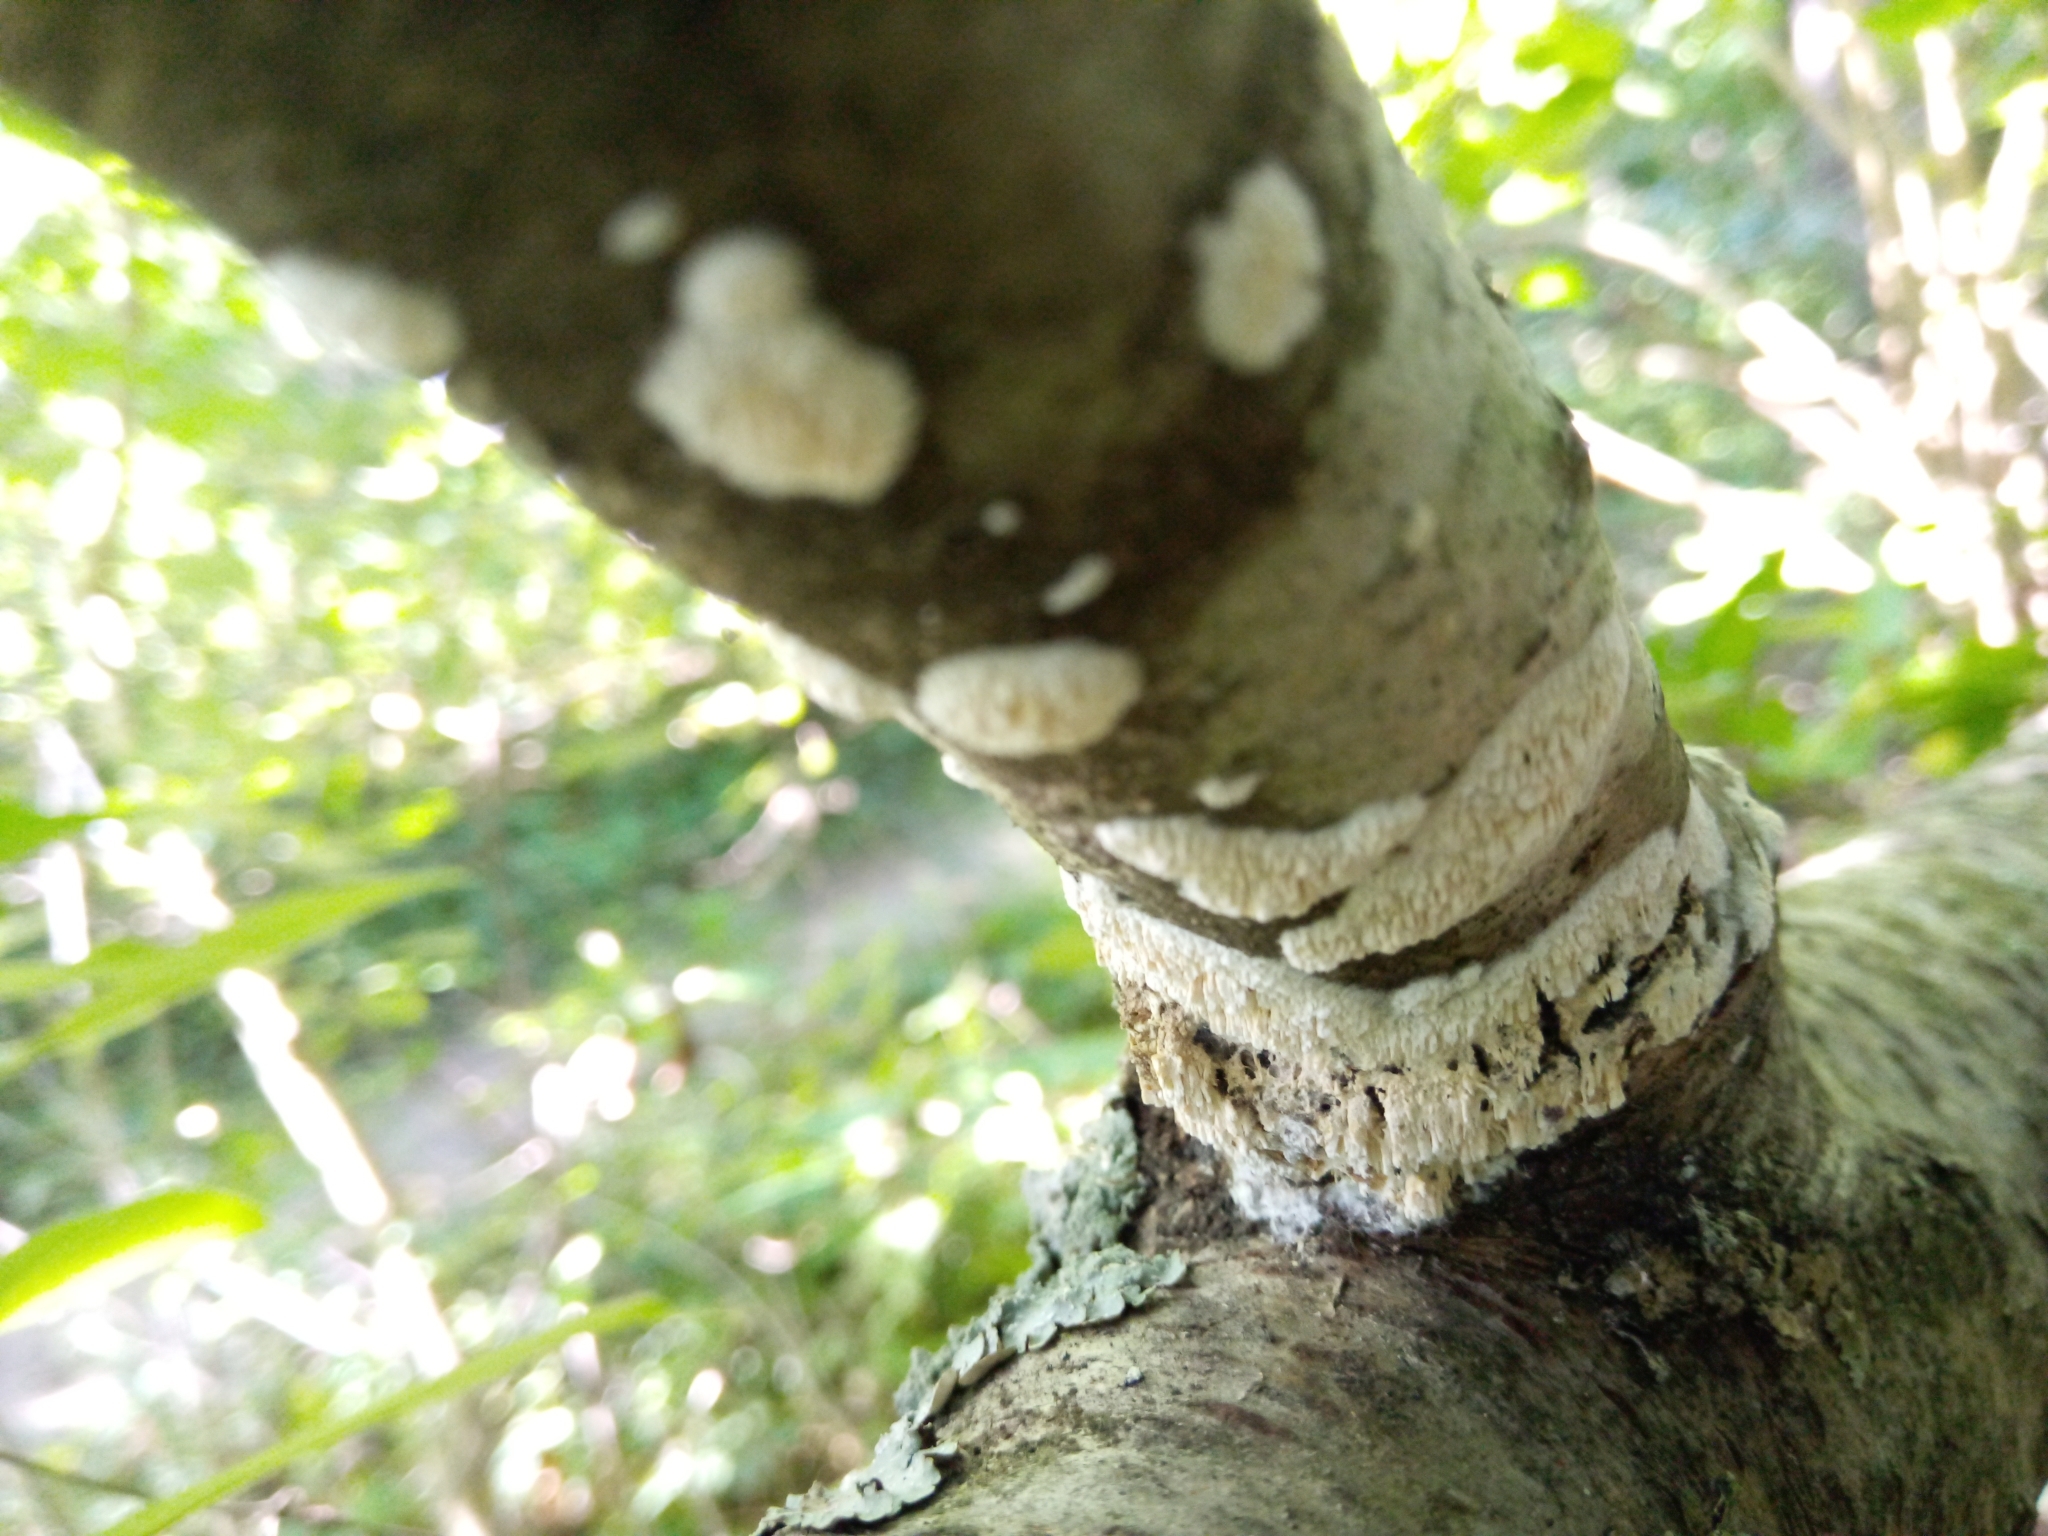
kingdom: Fungi
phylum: Basidiomycota
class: Agaricomycetes
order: Polyporales
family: Irpicaceae
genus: Irpex
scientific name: Irpex lacteus
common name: Milk-white toothed polypore
